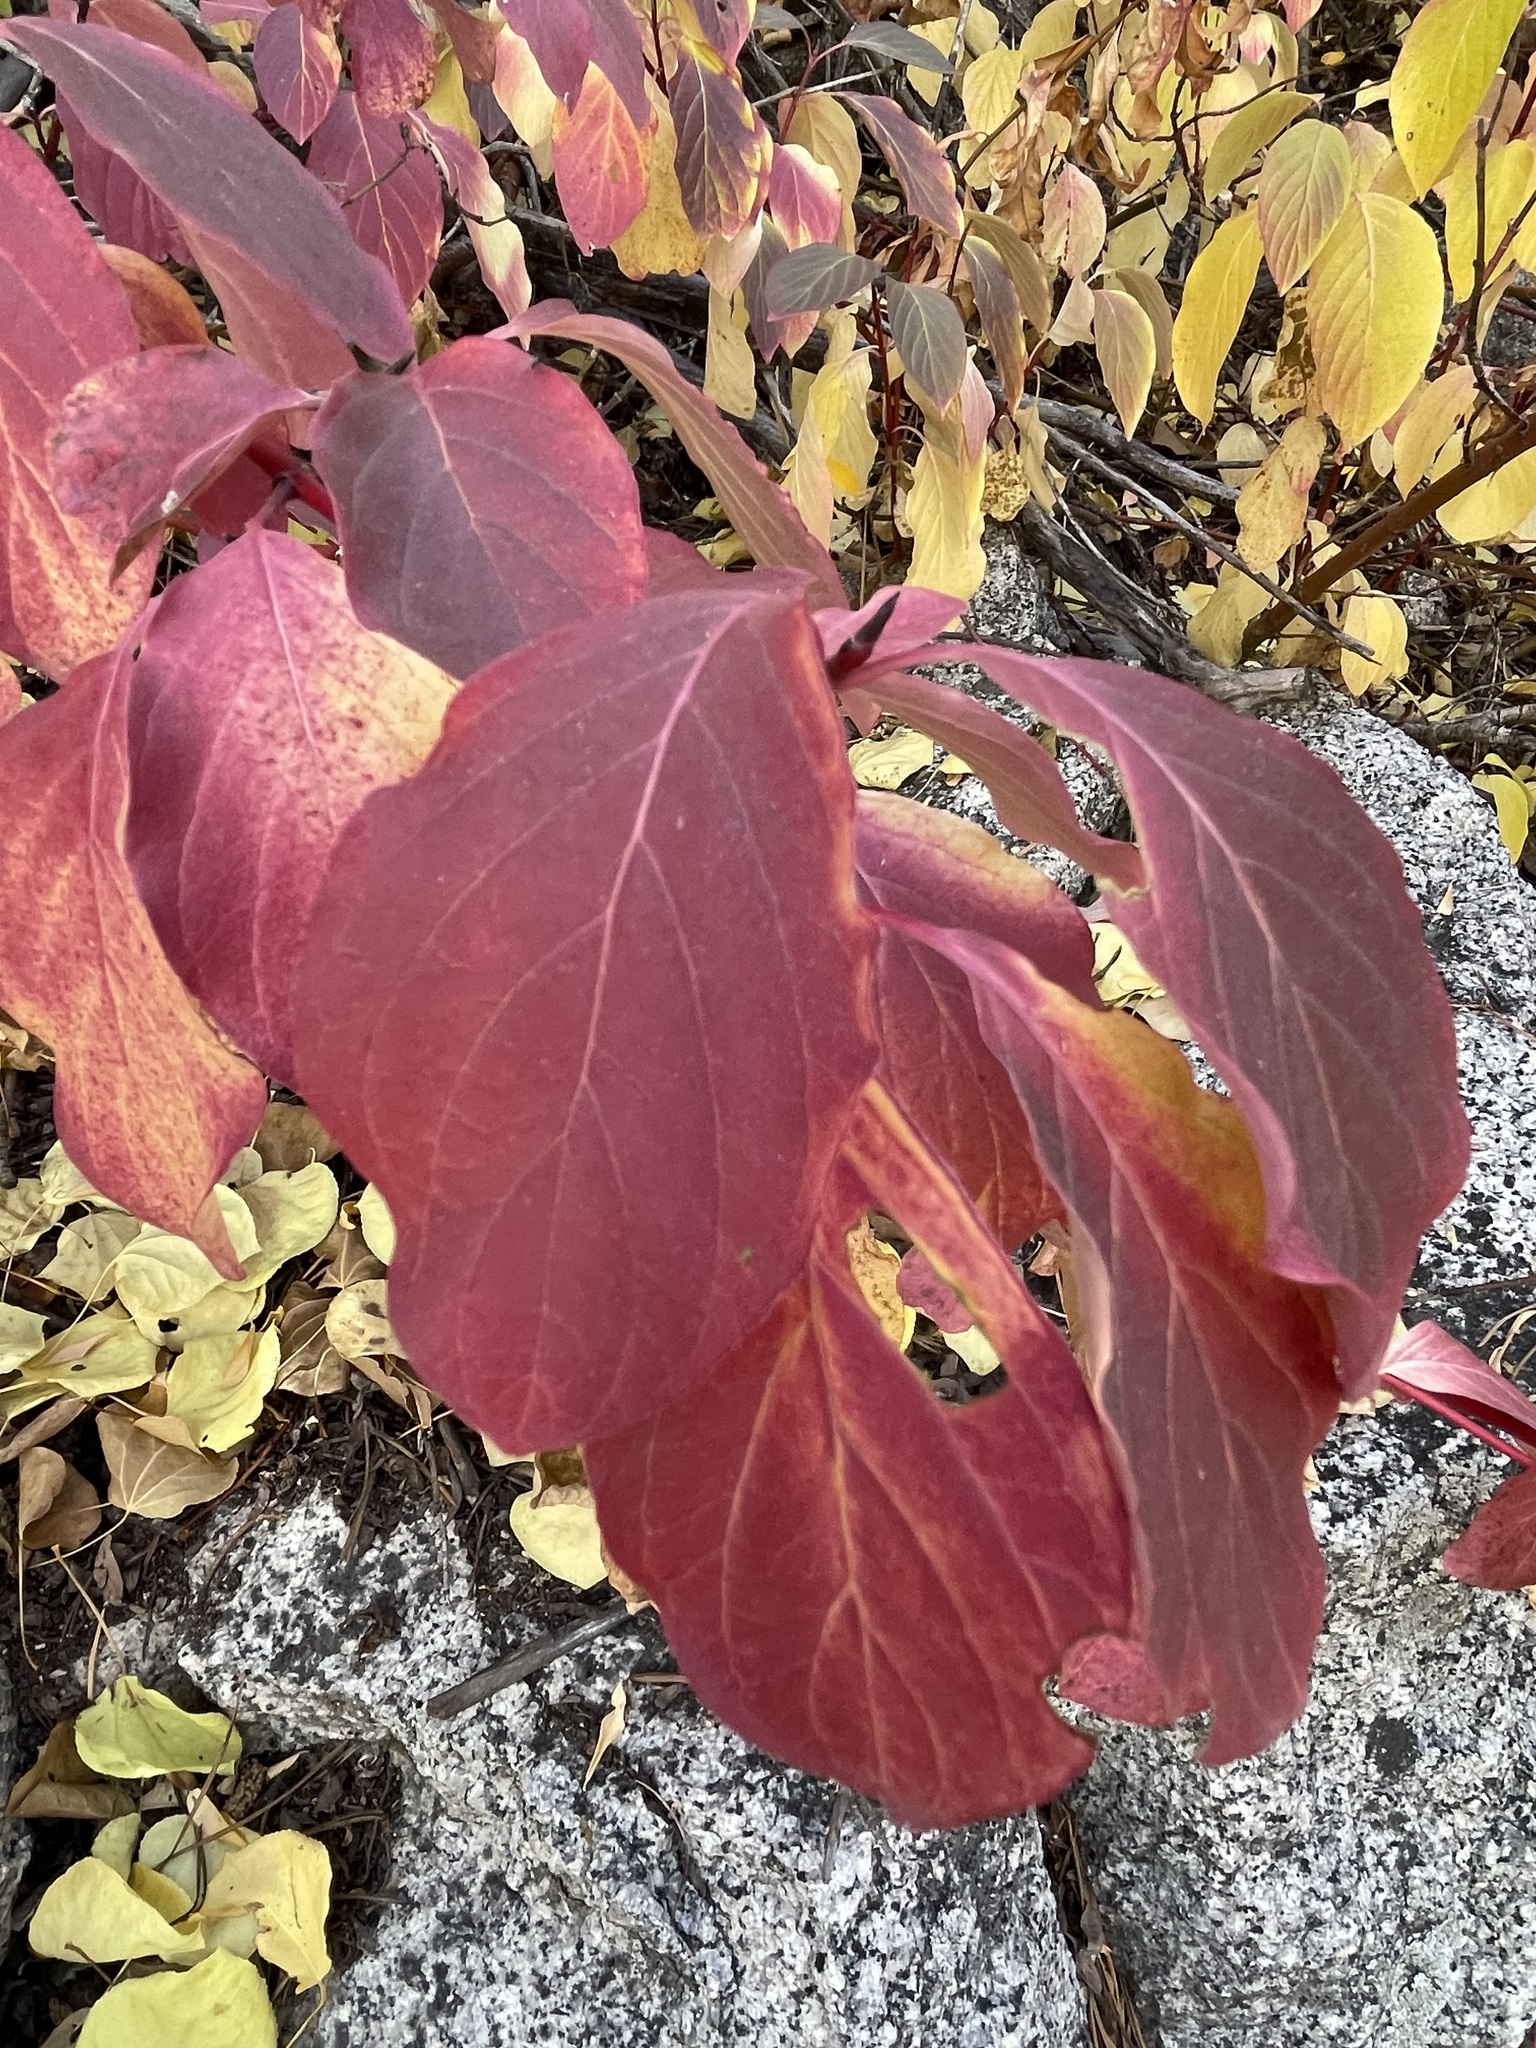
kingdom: Plantae
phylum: Tracheophyta
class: Magnoliopsida
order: Cornales
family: Cornaceae
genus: Cornus
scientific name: Cornus nuttallii
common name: Pacific dogwood
